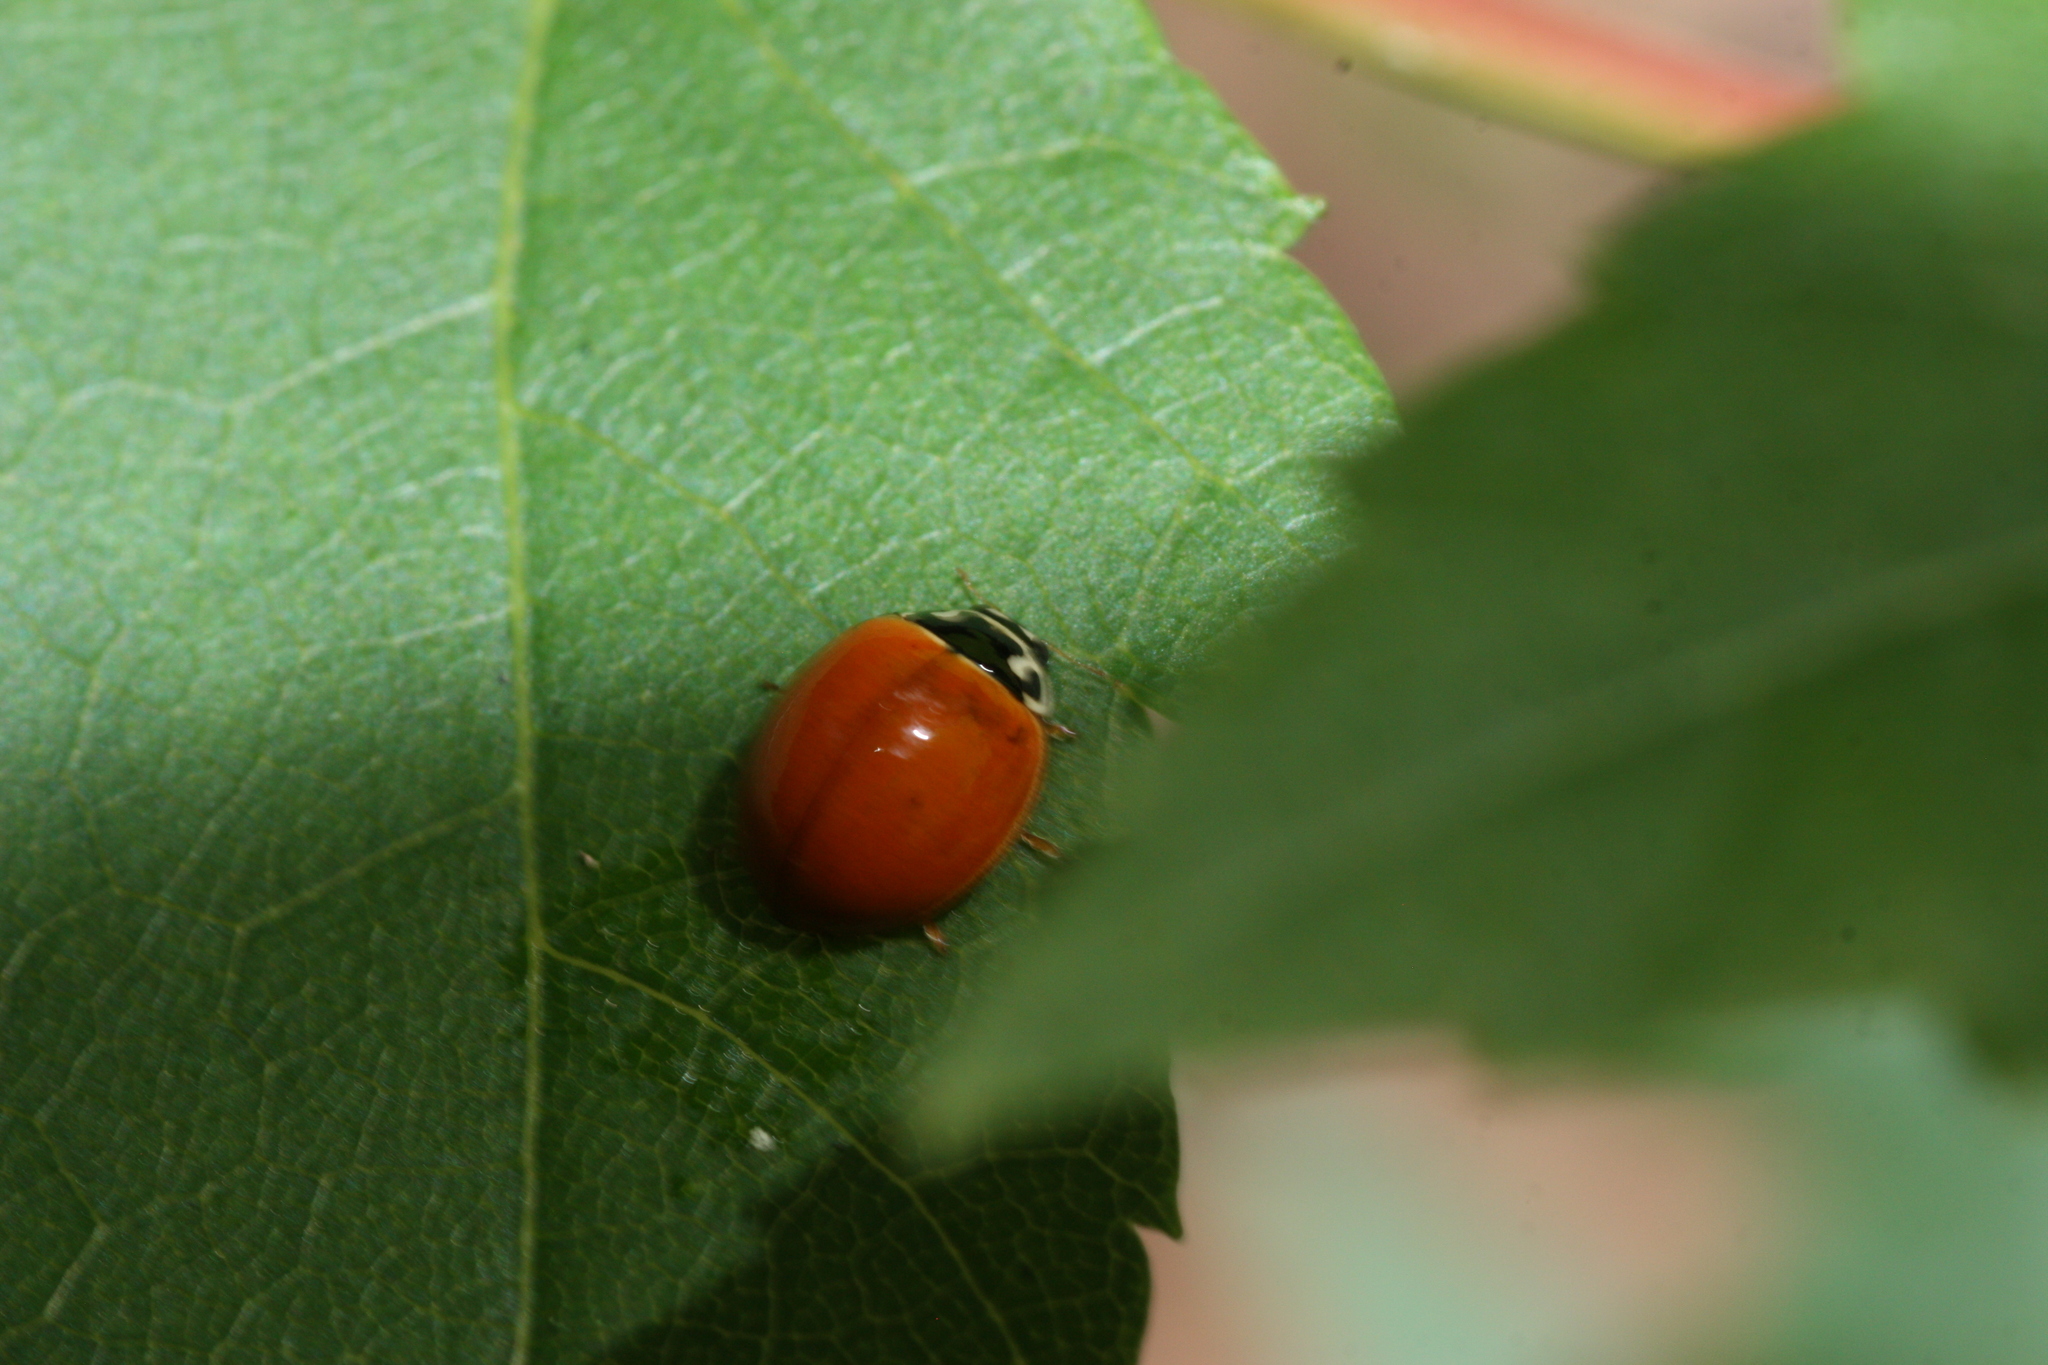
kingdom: Animalia
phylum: Arthropoda
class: Insecta
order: Coleoptera
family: Coccinellidae
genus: Cycloneda
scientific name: Cycloneda munda
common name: Polished lady beetle
